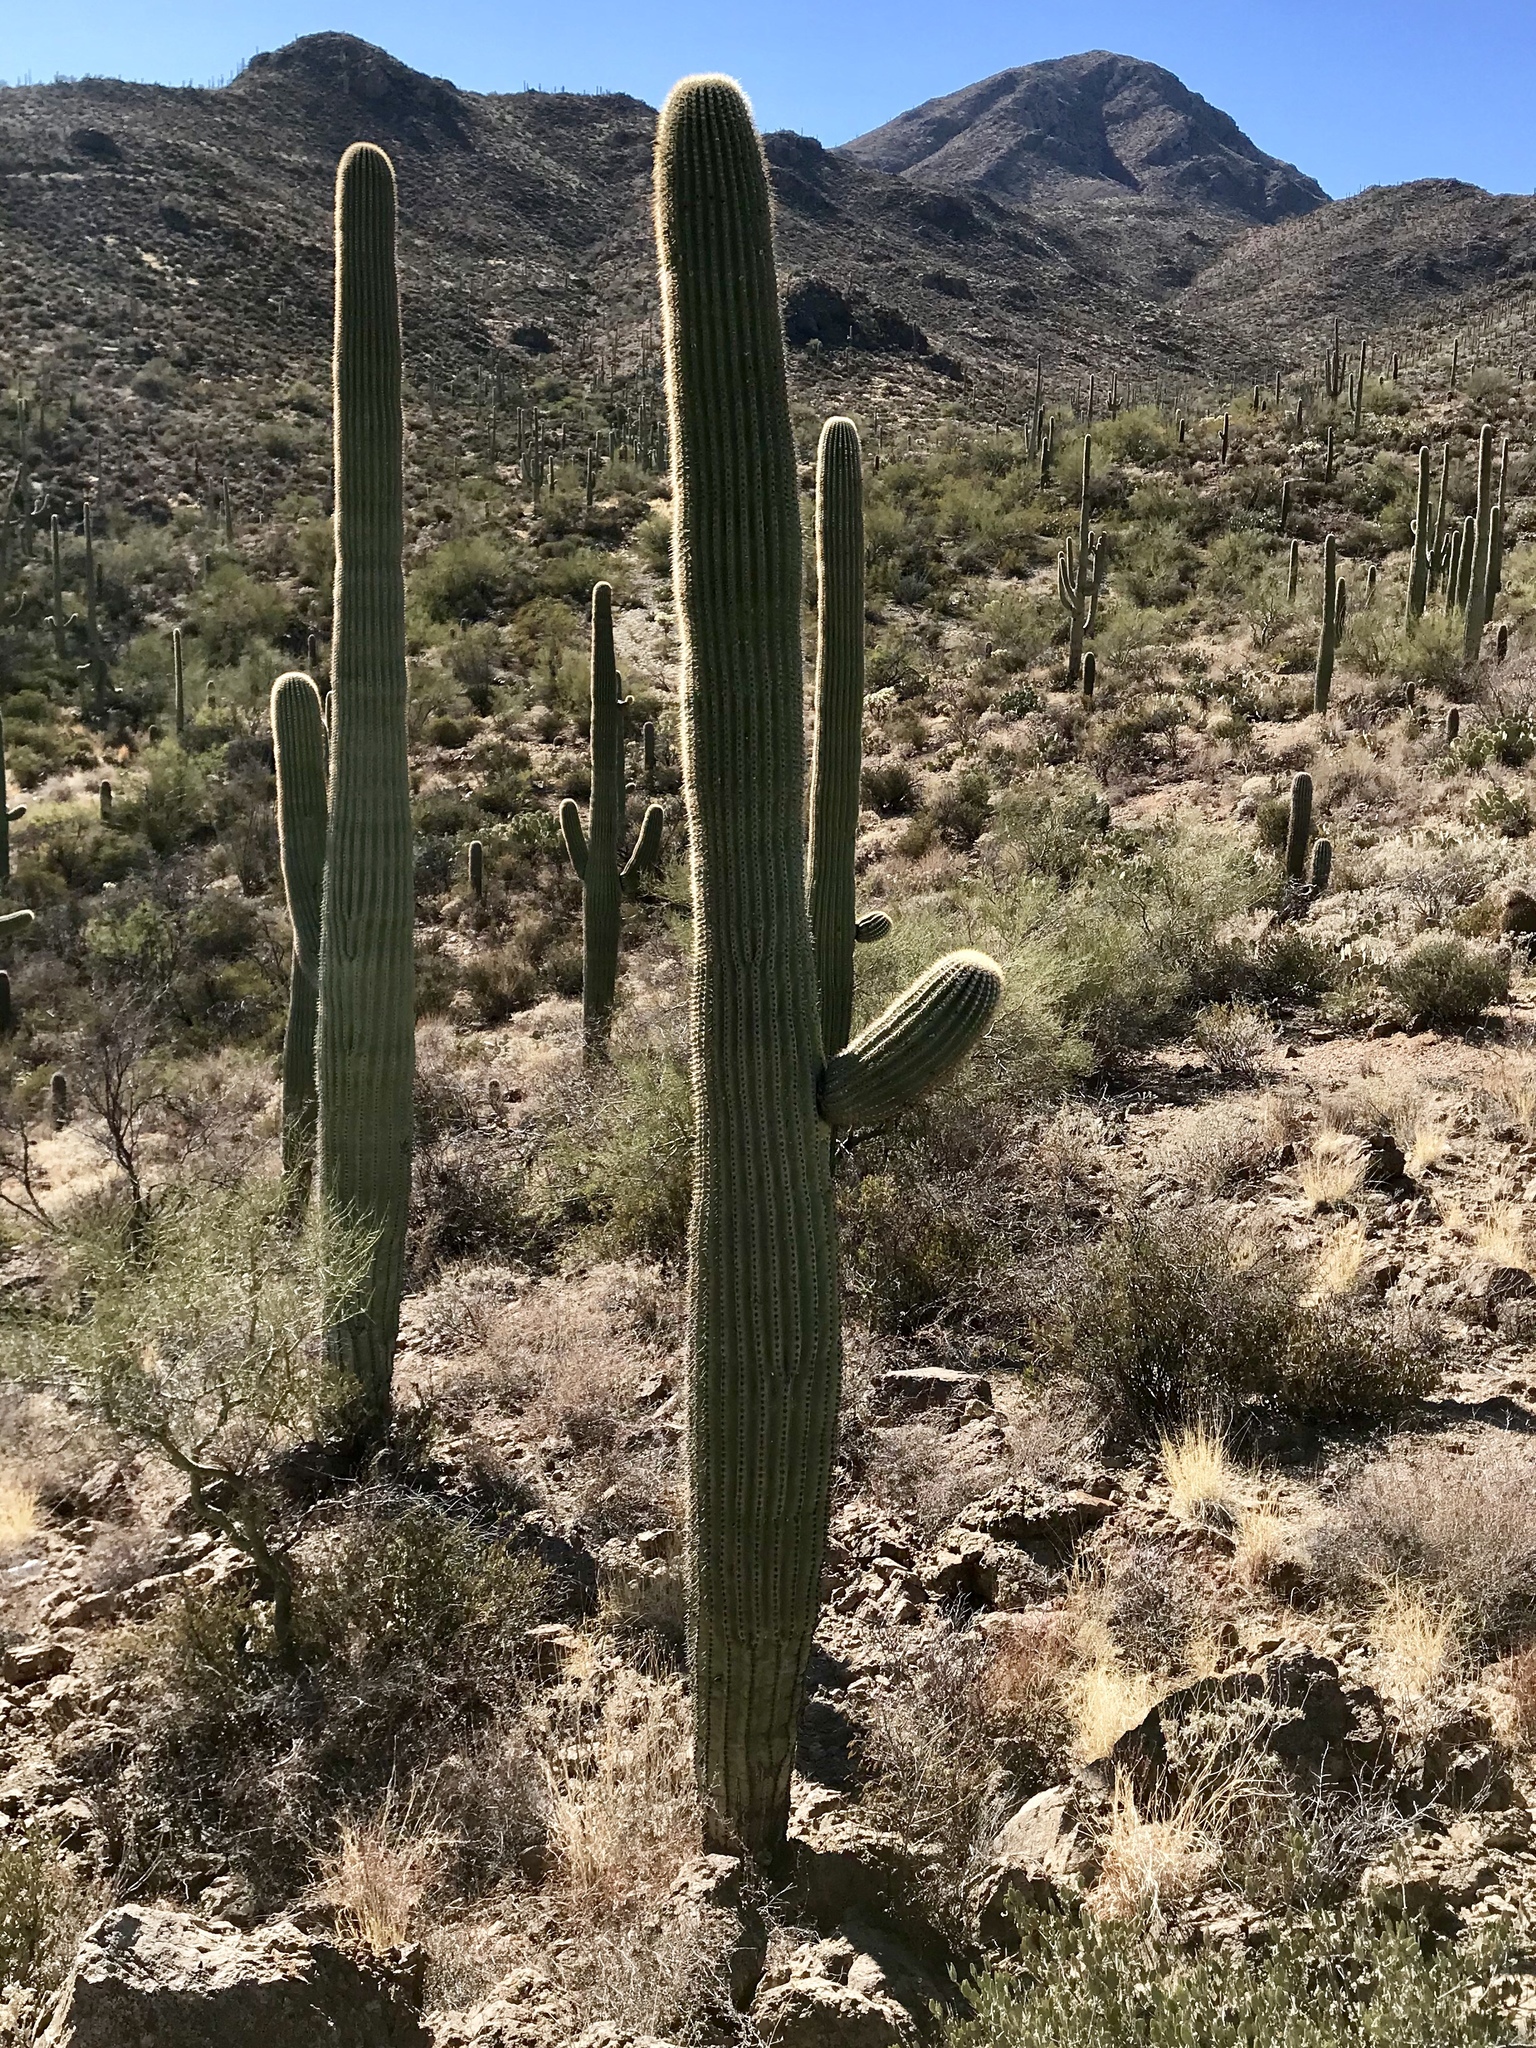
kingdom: Plantae
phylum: Tracheophyta
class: Magnoliopsida
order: Caryophyllales
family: Cactaceae
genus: Carnegiea
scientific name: Carnegiea gigantea
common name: Saguaro
